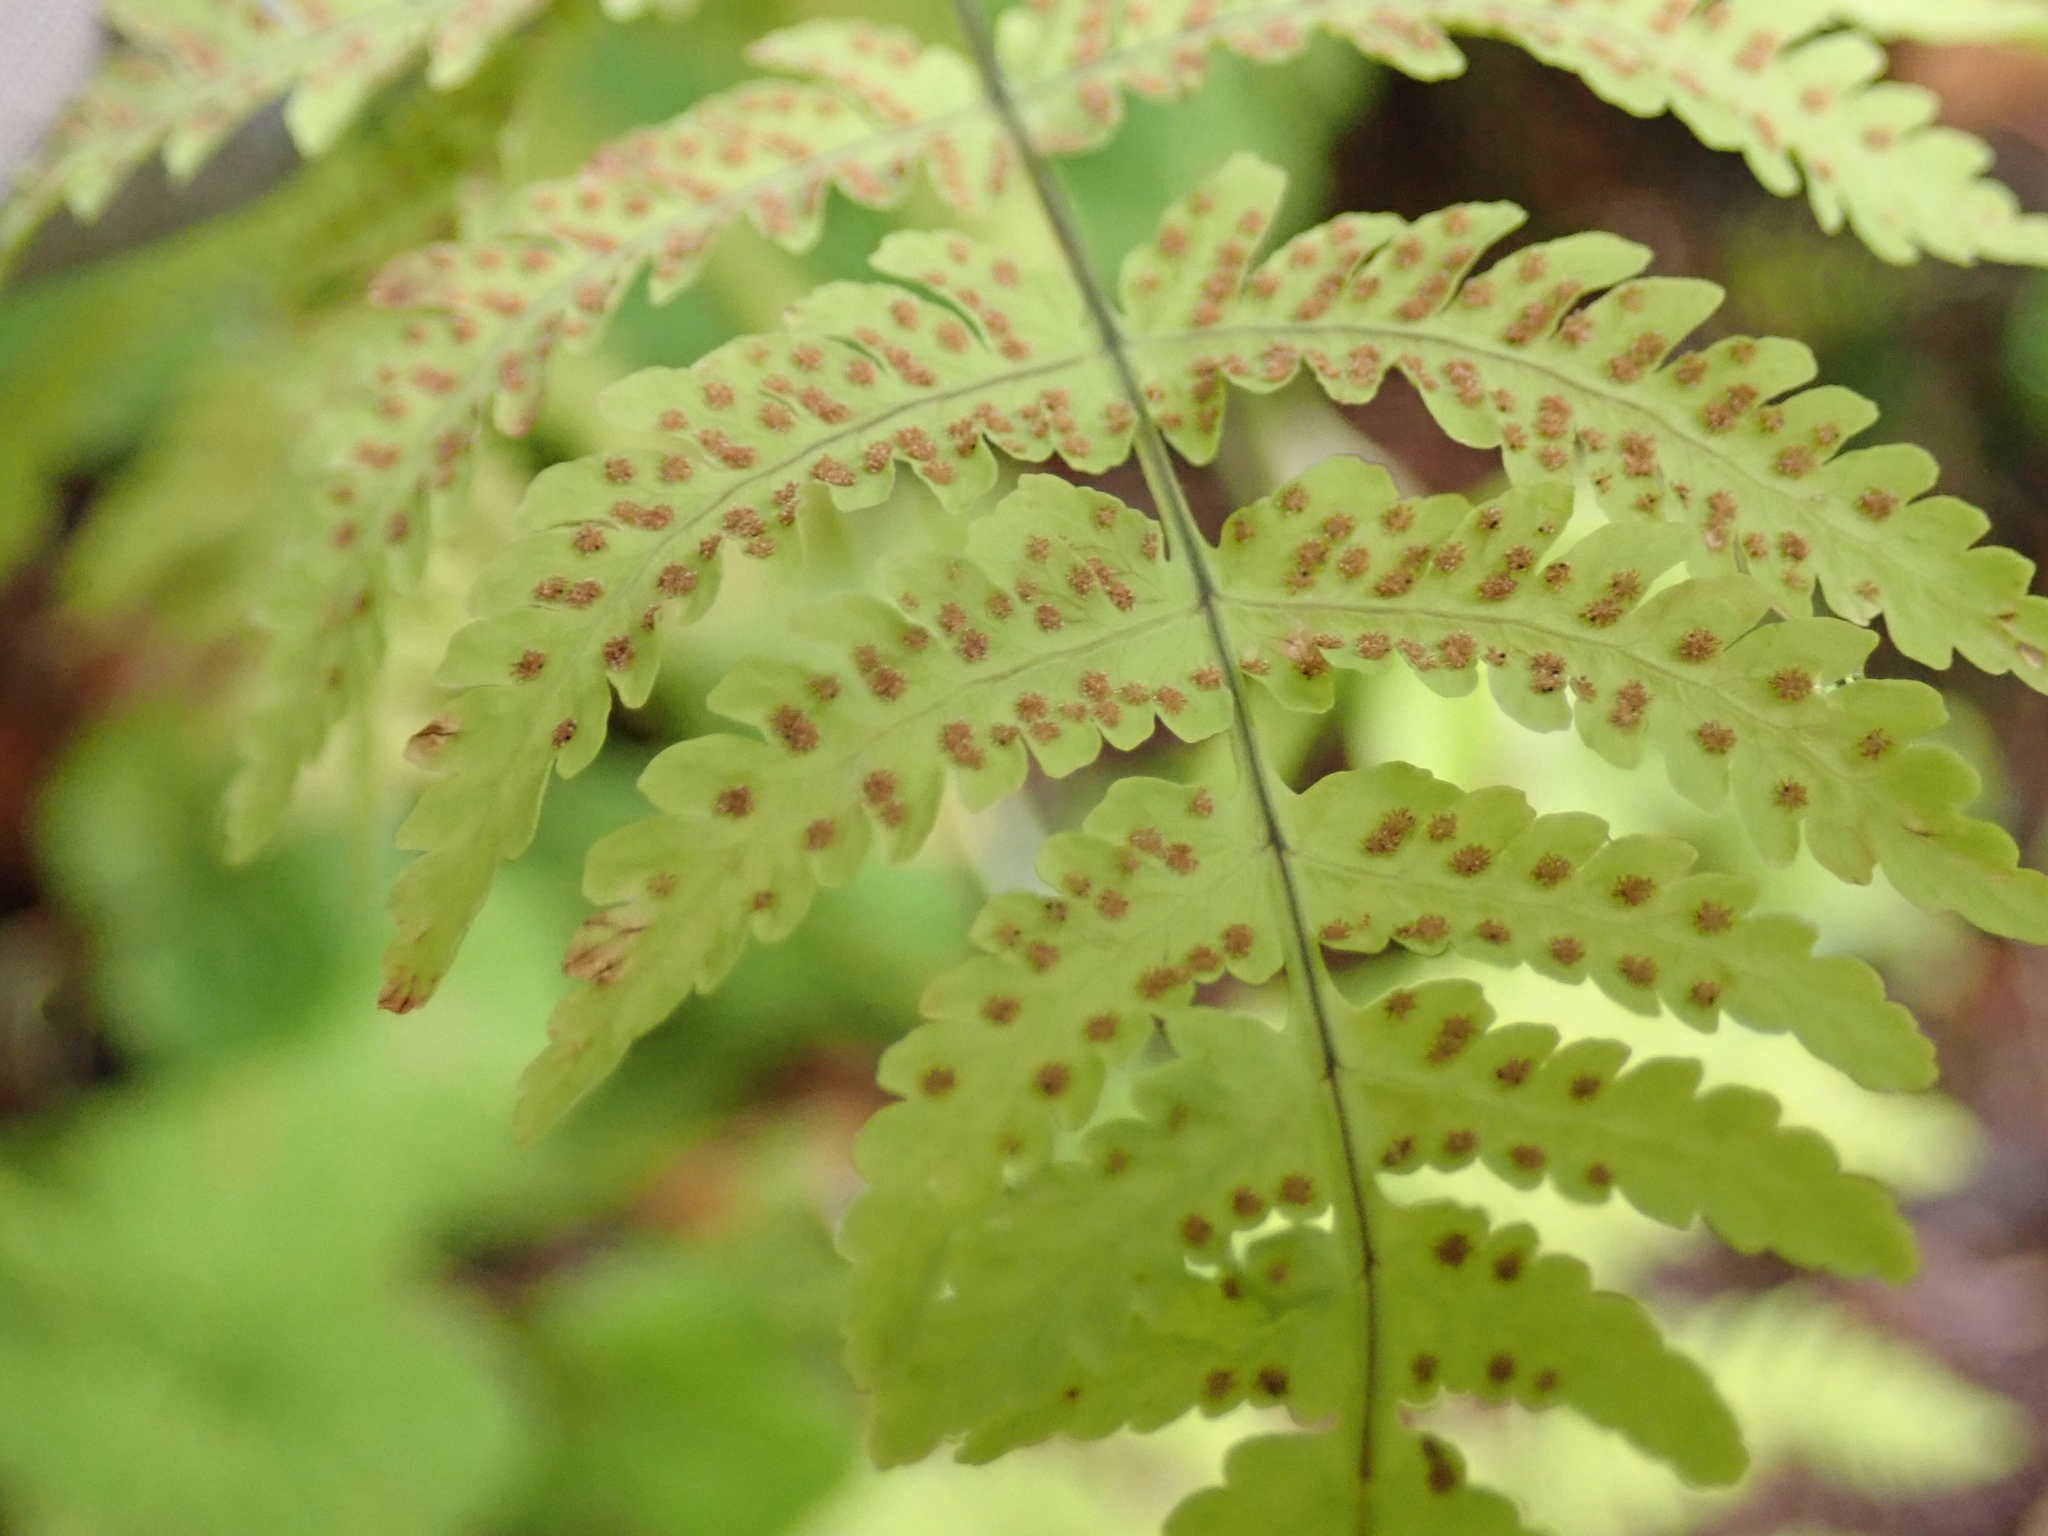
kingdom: Plantae
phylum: Tracheophyta
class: Polypodiopsida
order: Polypodiales
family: Cystopteridaceae
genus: Gymnocarpium
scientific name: Gymnocarpium disjunctum
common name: Western oak fern
